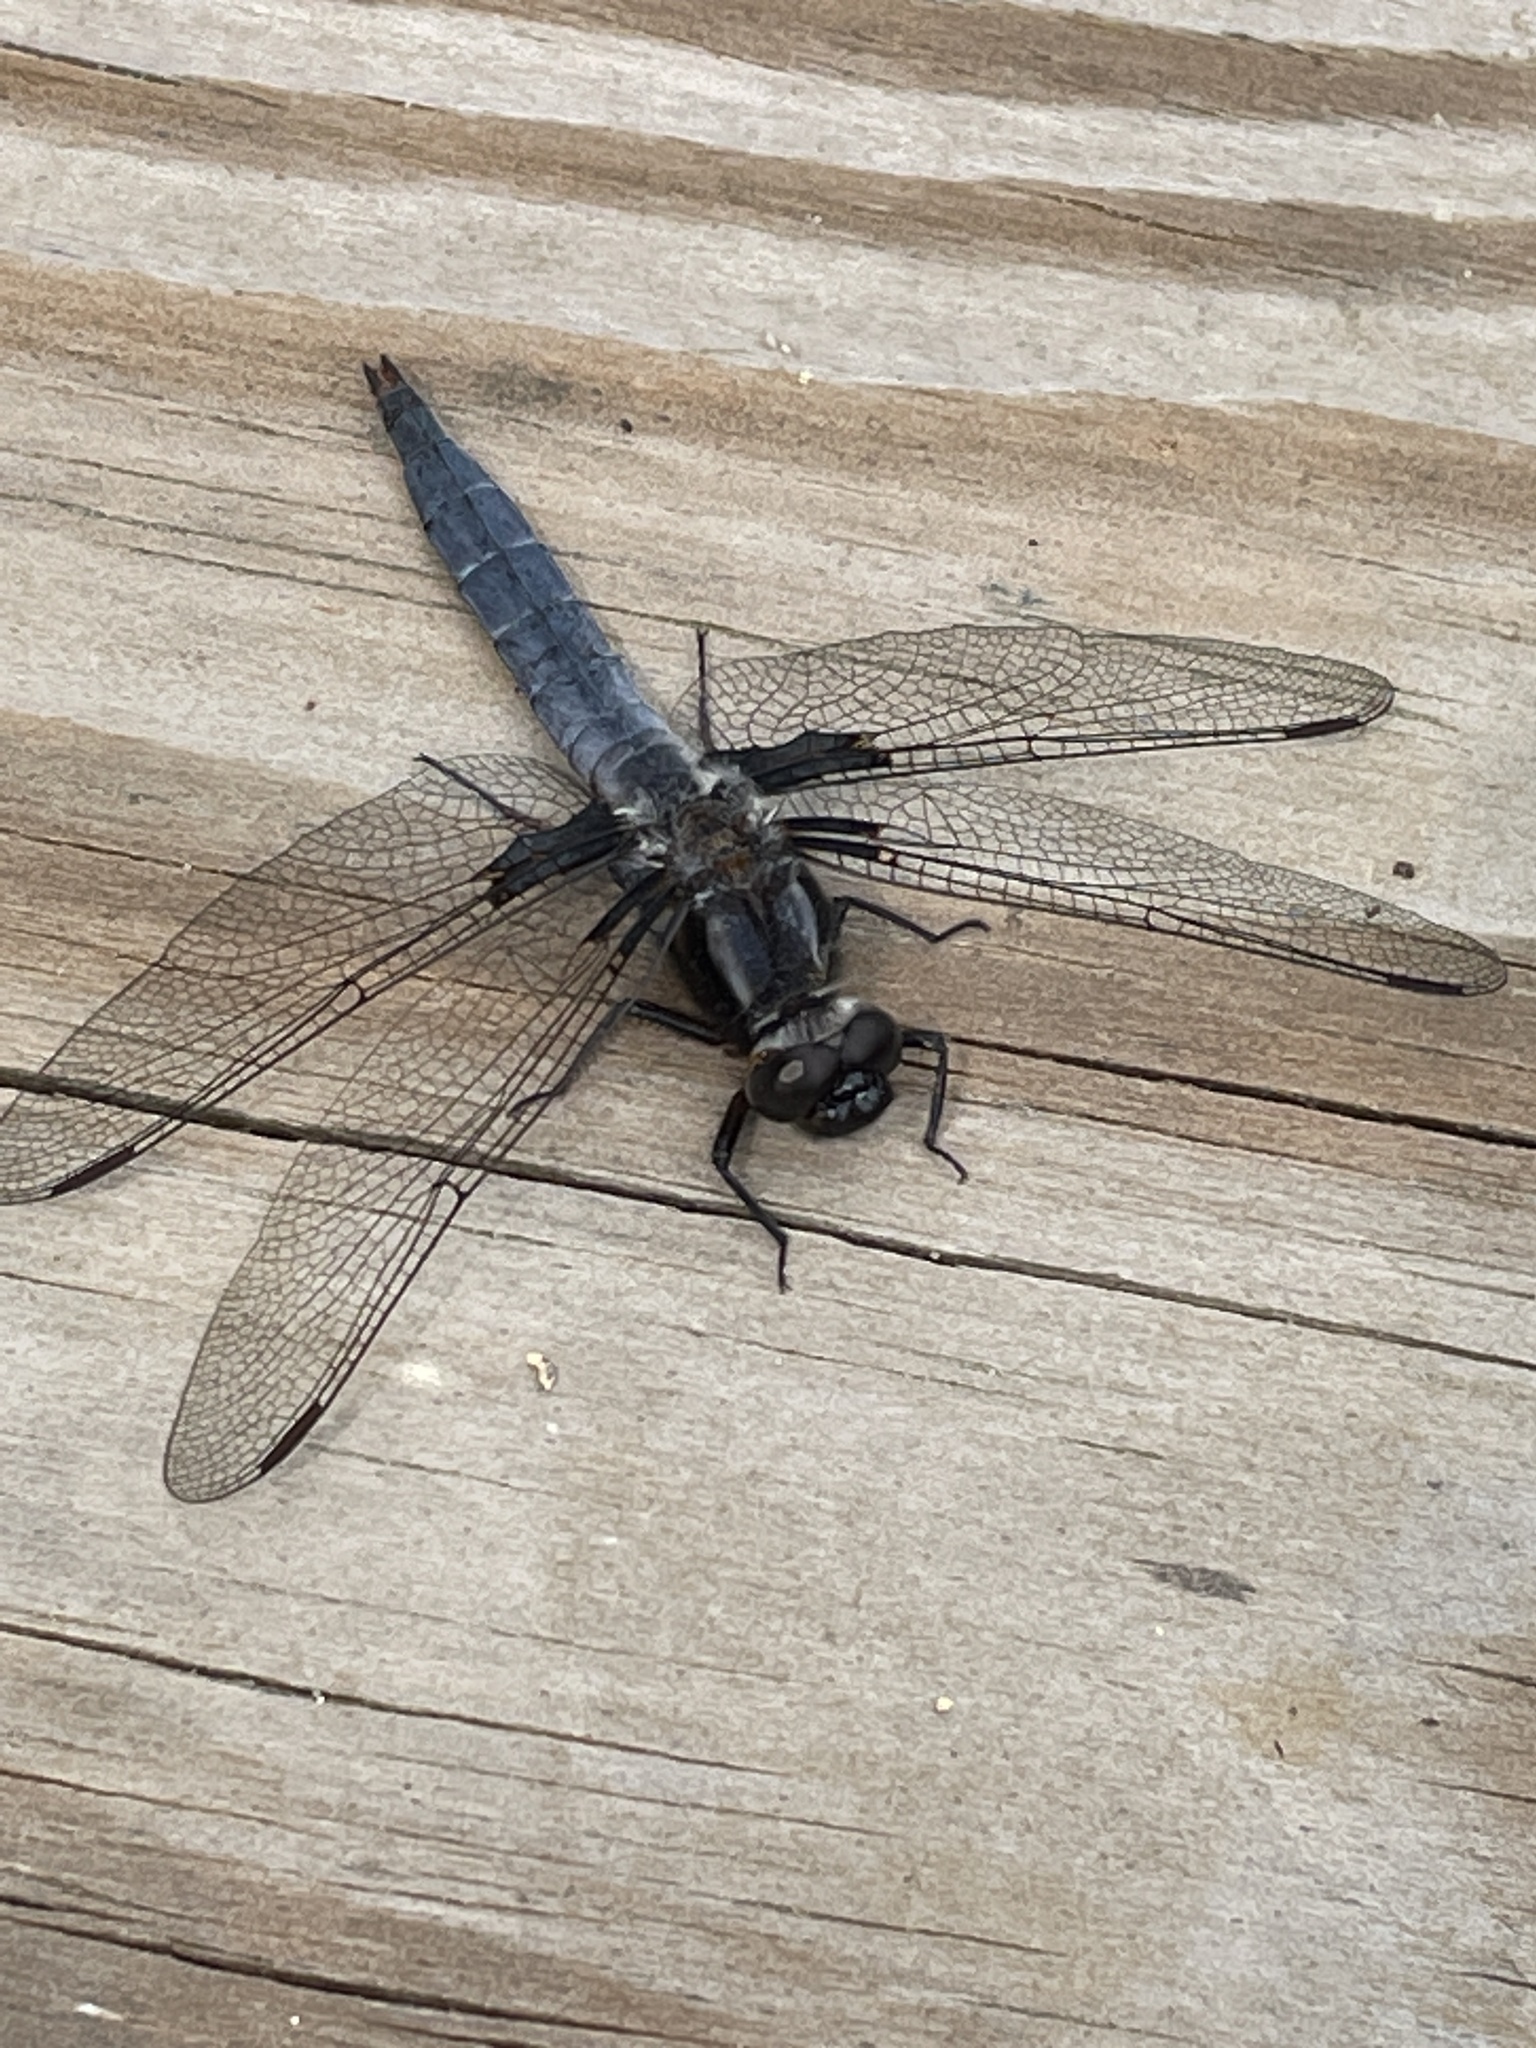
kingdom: Animalia
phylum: Arthropoda
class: Insecta
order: Odonata
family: Libellulidae
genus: Ladona
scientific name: Ladona deplanata
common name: Blue corporal
